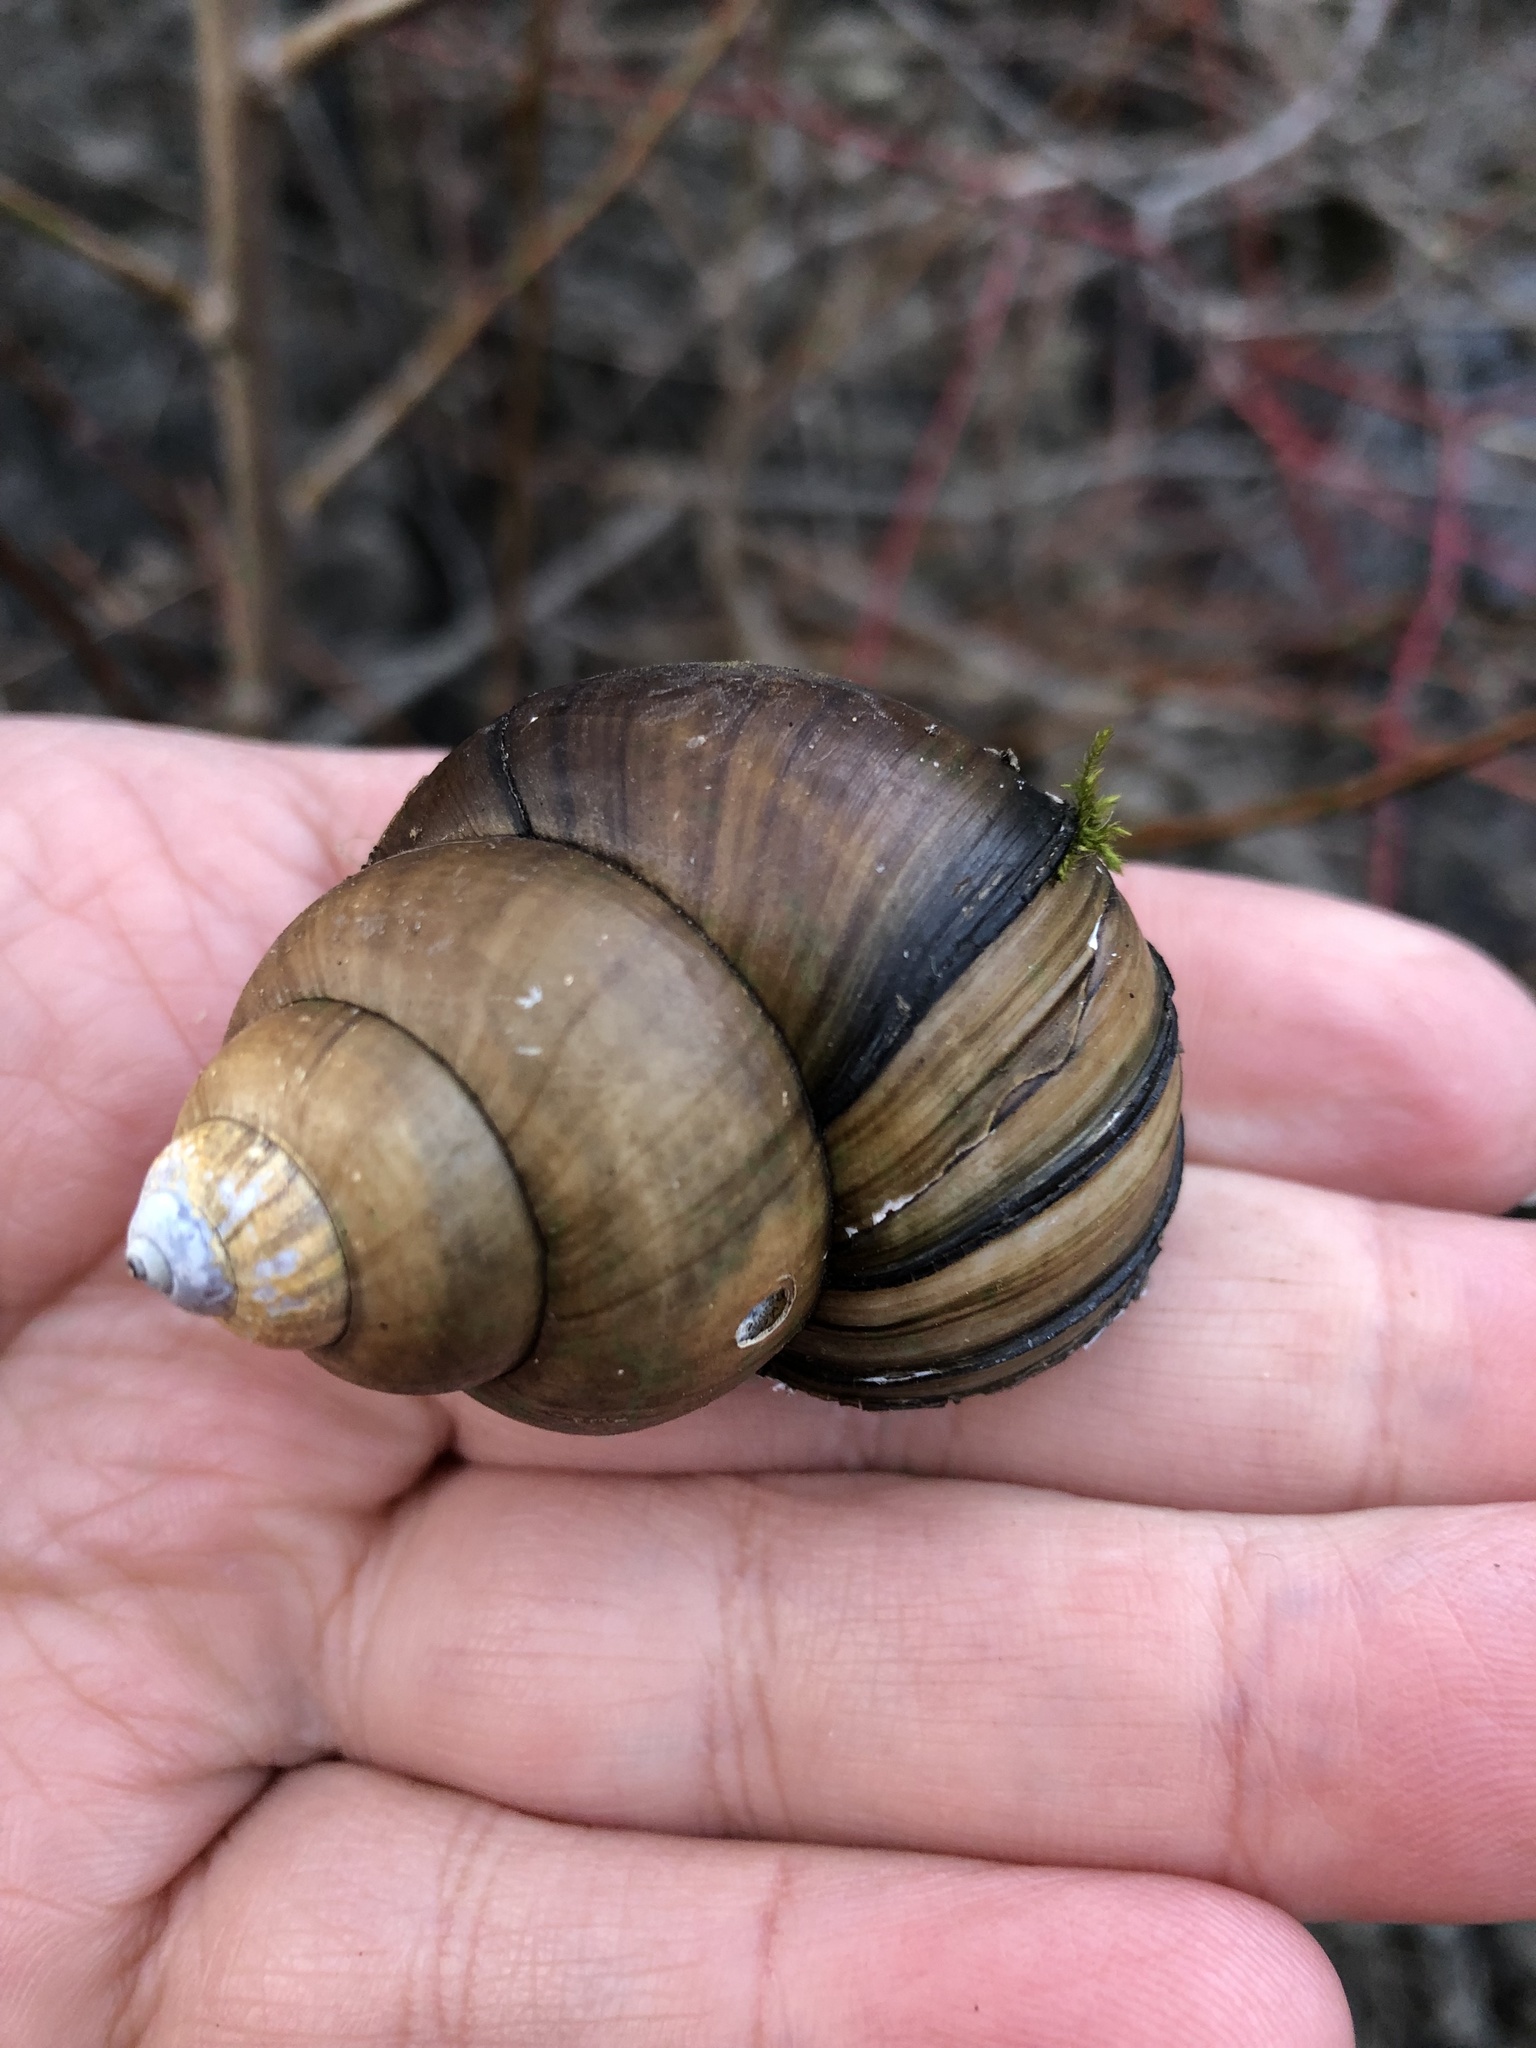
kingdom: Animalia
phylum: Mollusca
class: Gastropoda
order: Architaenioglossa
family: Viviparidae
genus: Cipangopaludina
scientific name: Cipangopaludina chinensis
